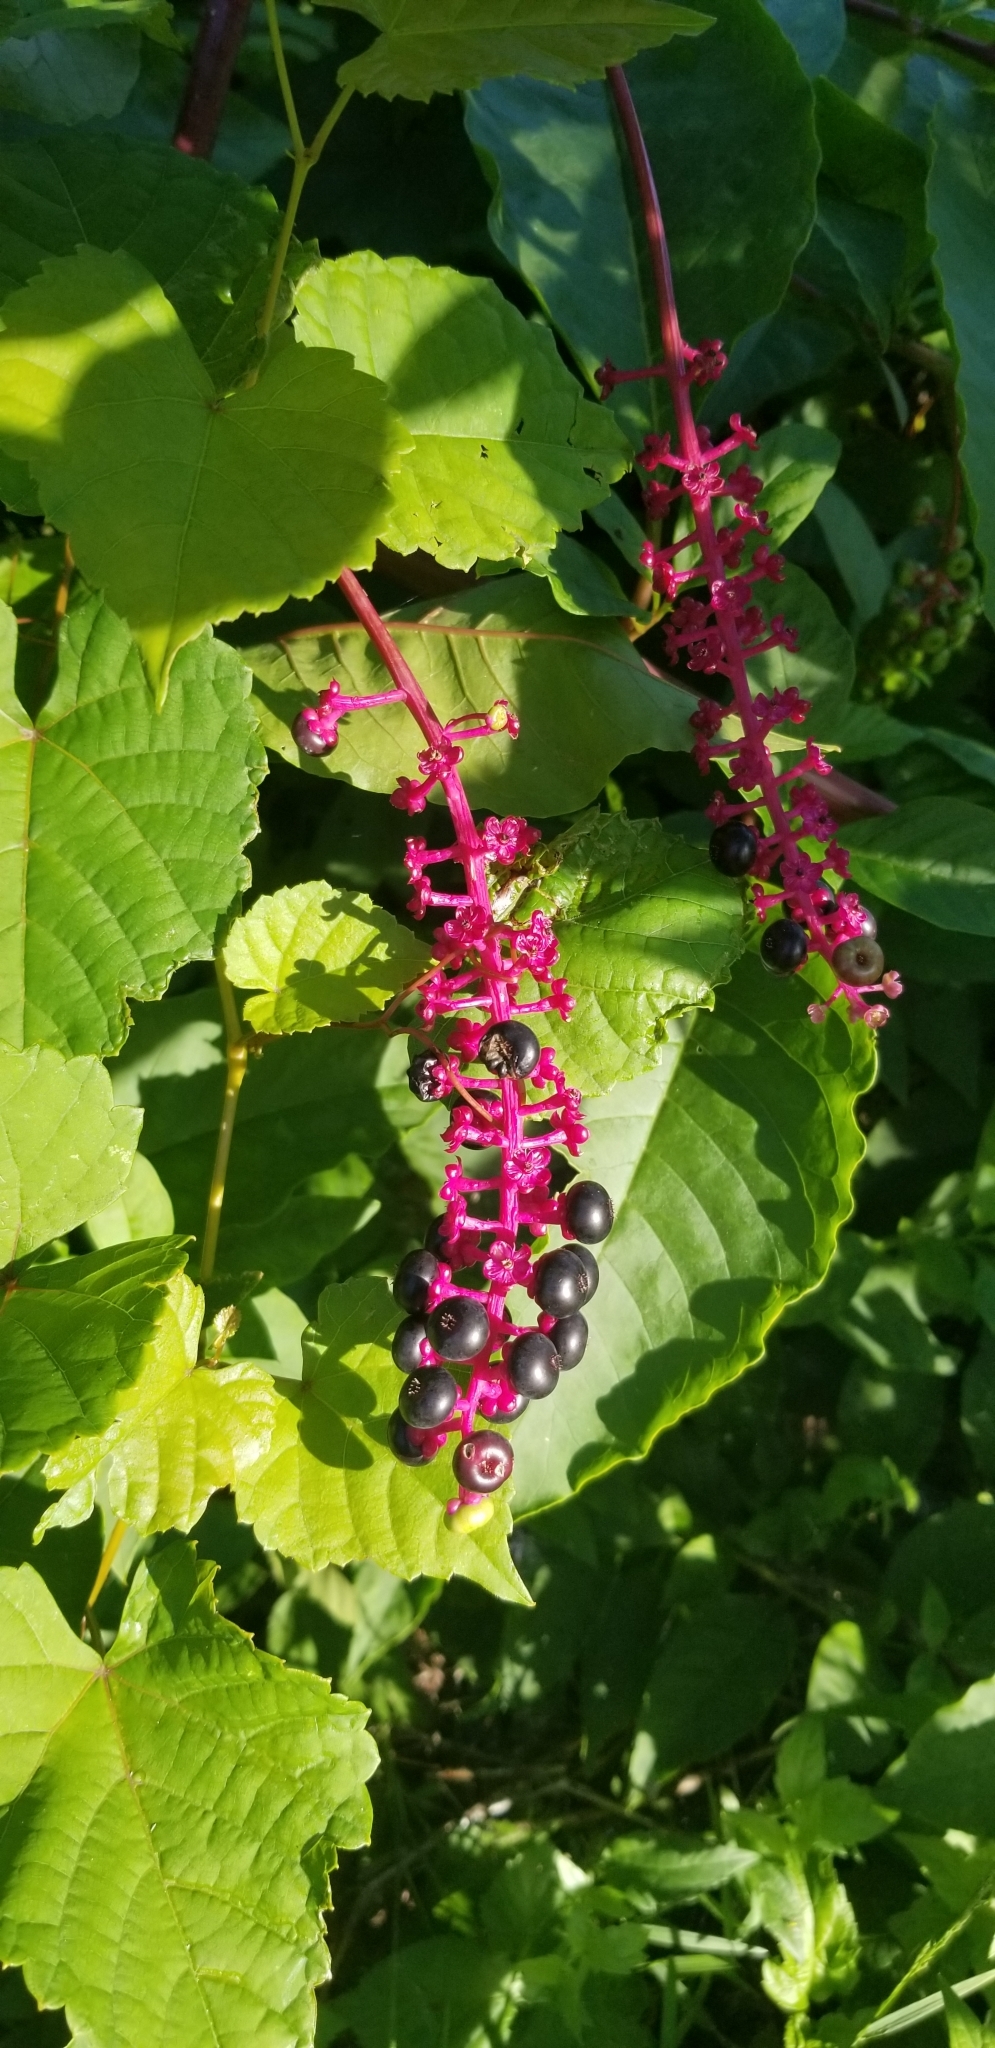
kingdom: Plantae
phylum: Tracheophyta
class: Magnoliopsida
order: Caryophyllales
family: Phytolaccaceae
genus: Phytolacca
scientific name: Phytolacca americana
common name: American pokeweed
